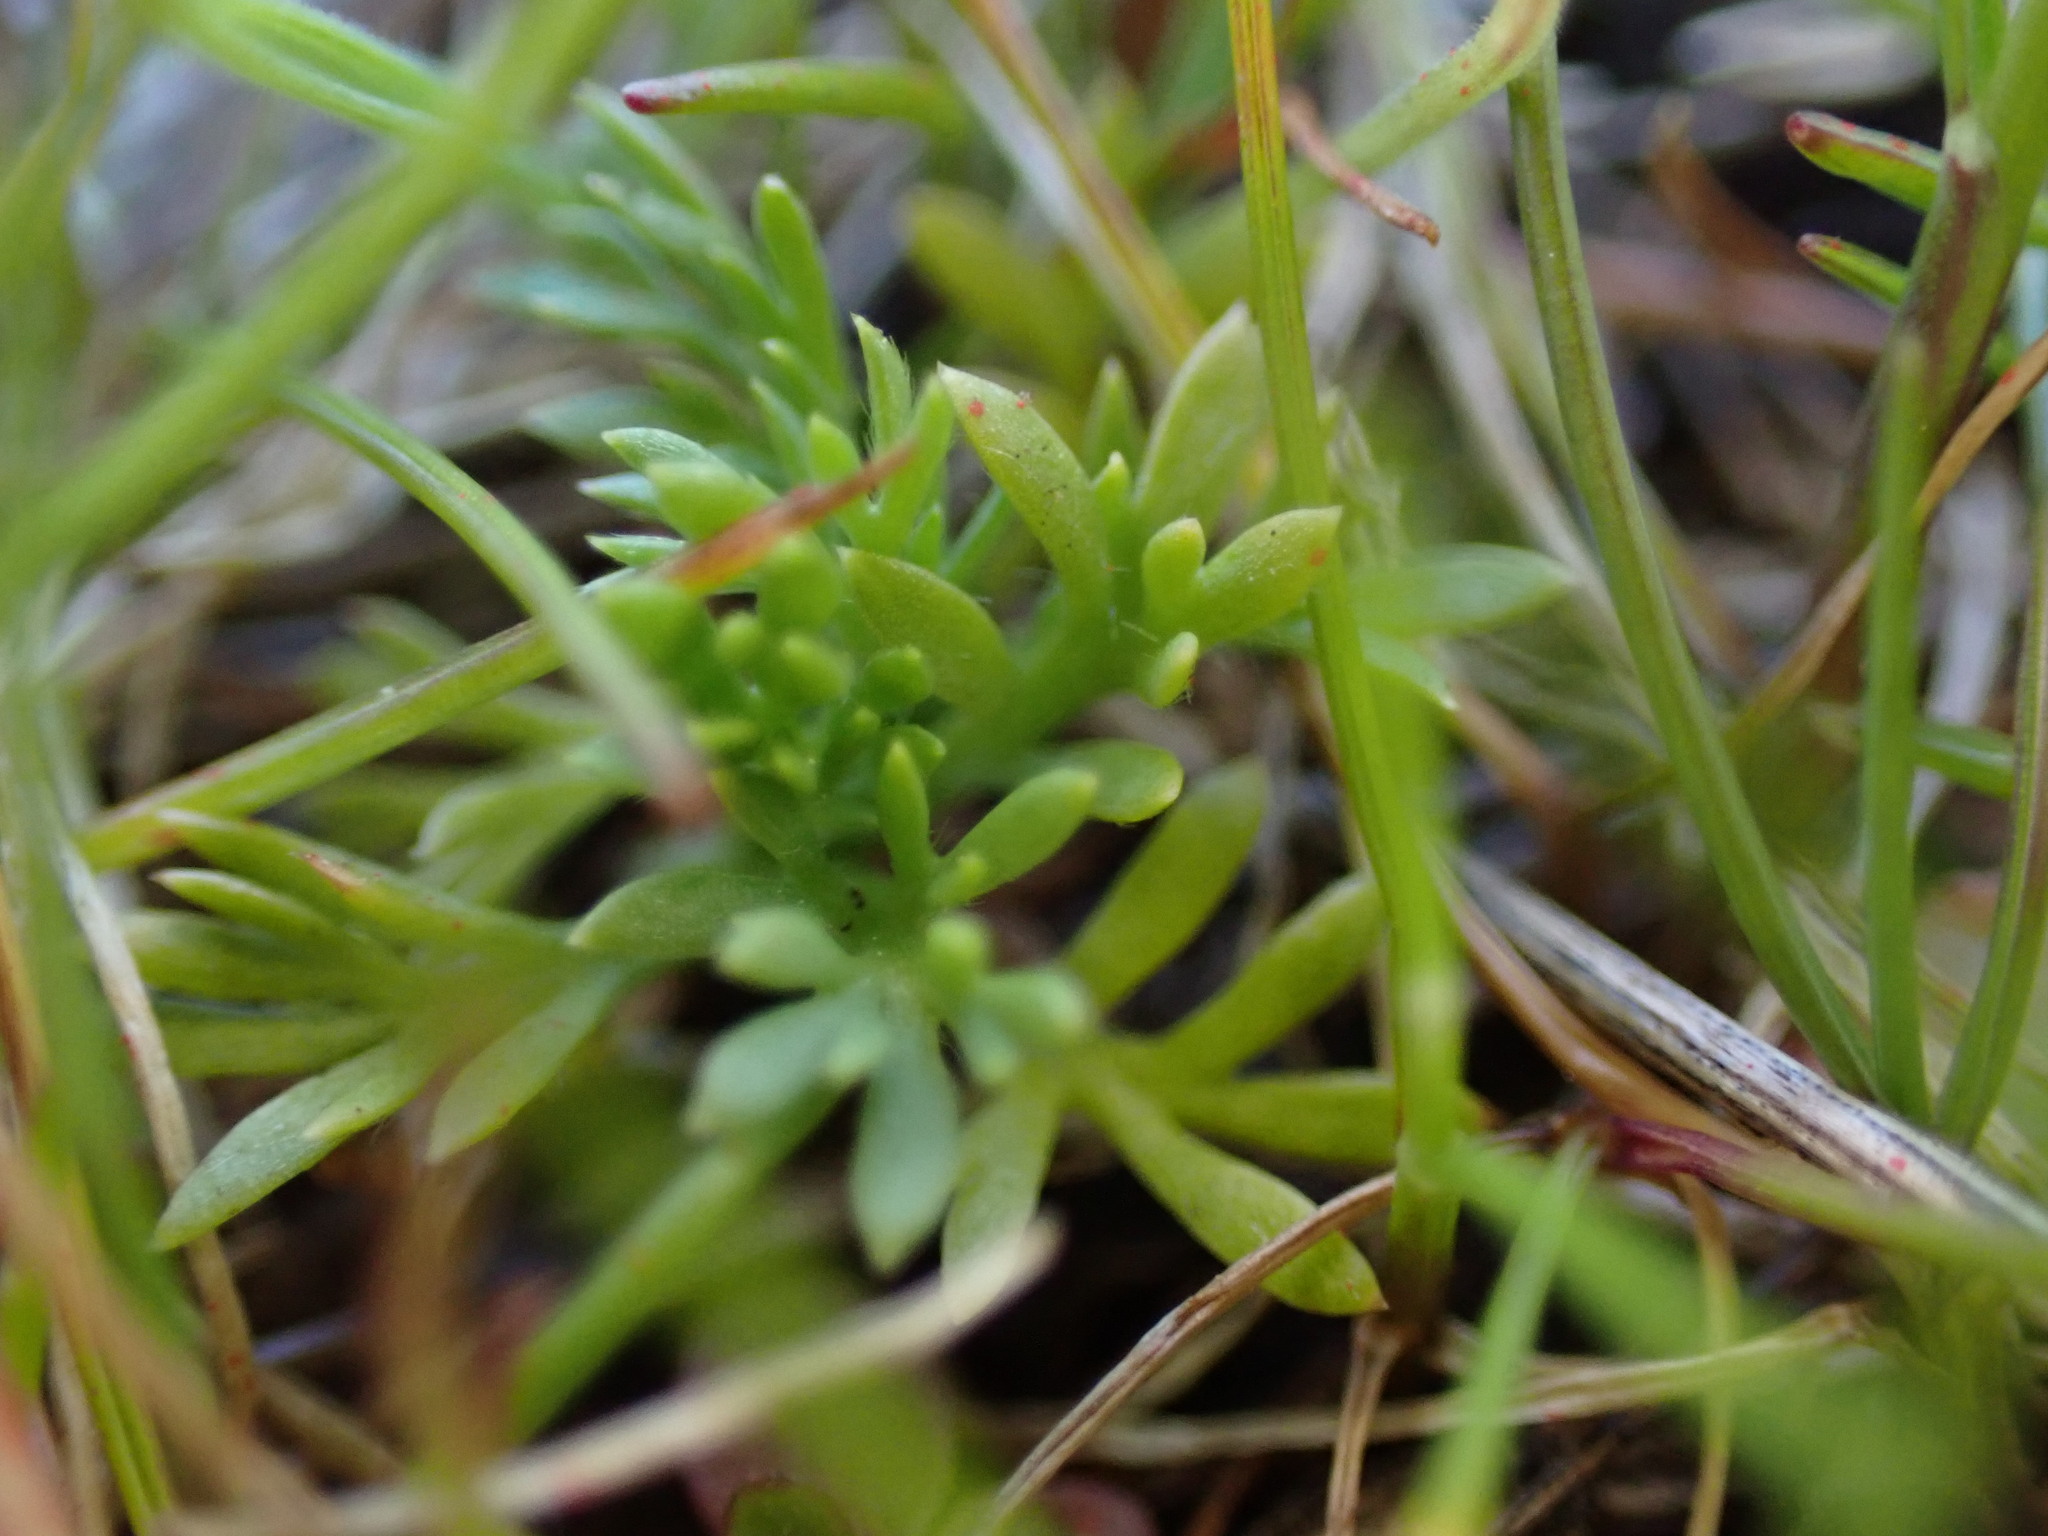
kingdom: Plantae
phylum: Tracheophyta
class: Magnoliopsida
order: Asterales
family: Asteraceae
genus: Soliva
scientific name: Soliva sessilis
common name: Field burrweed
